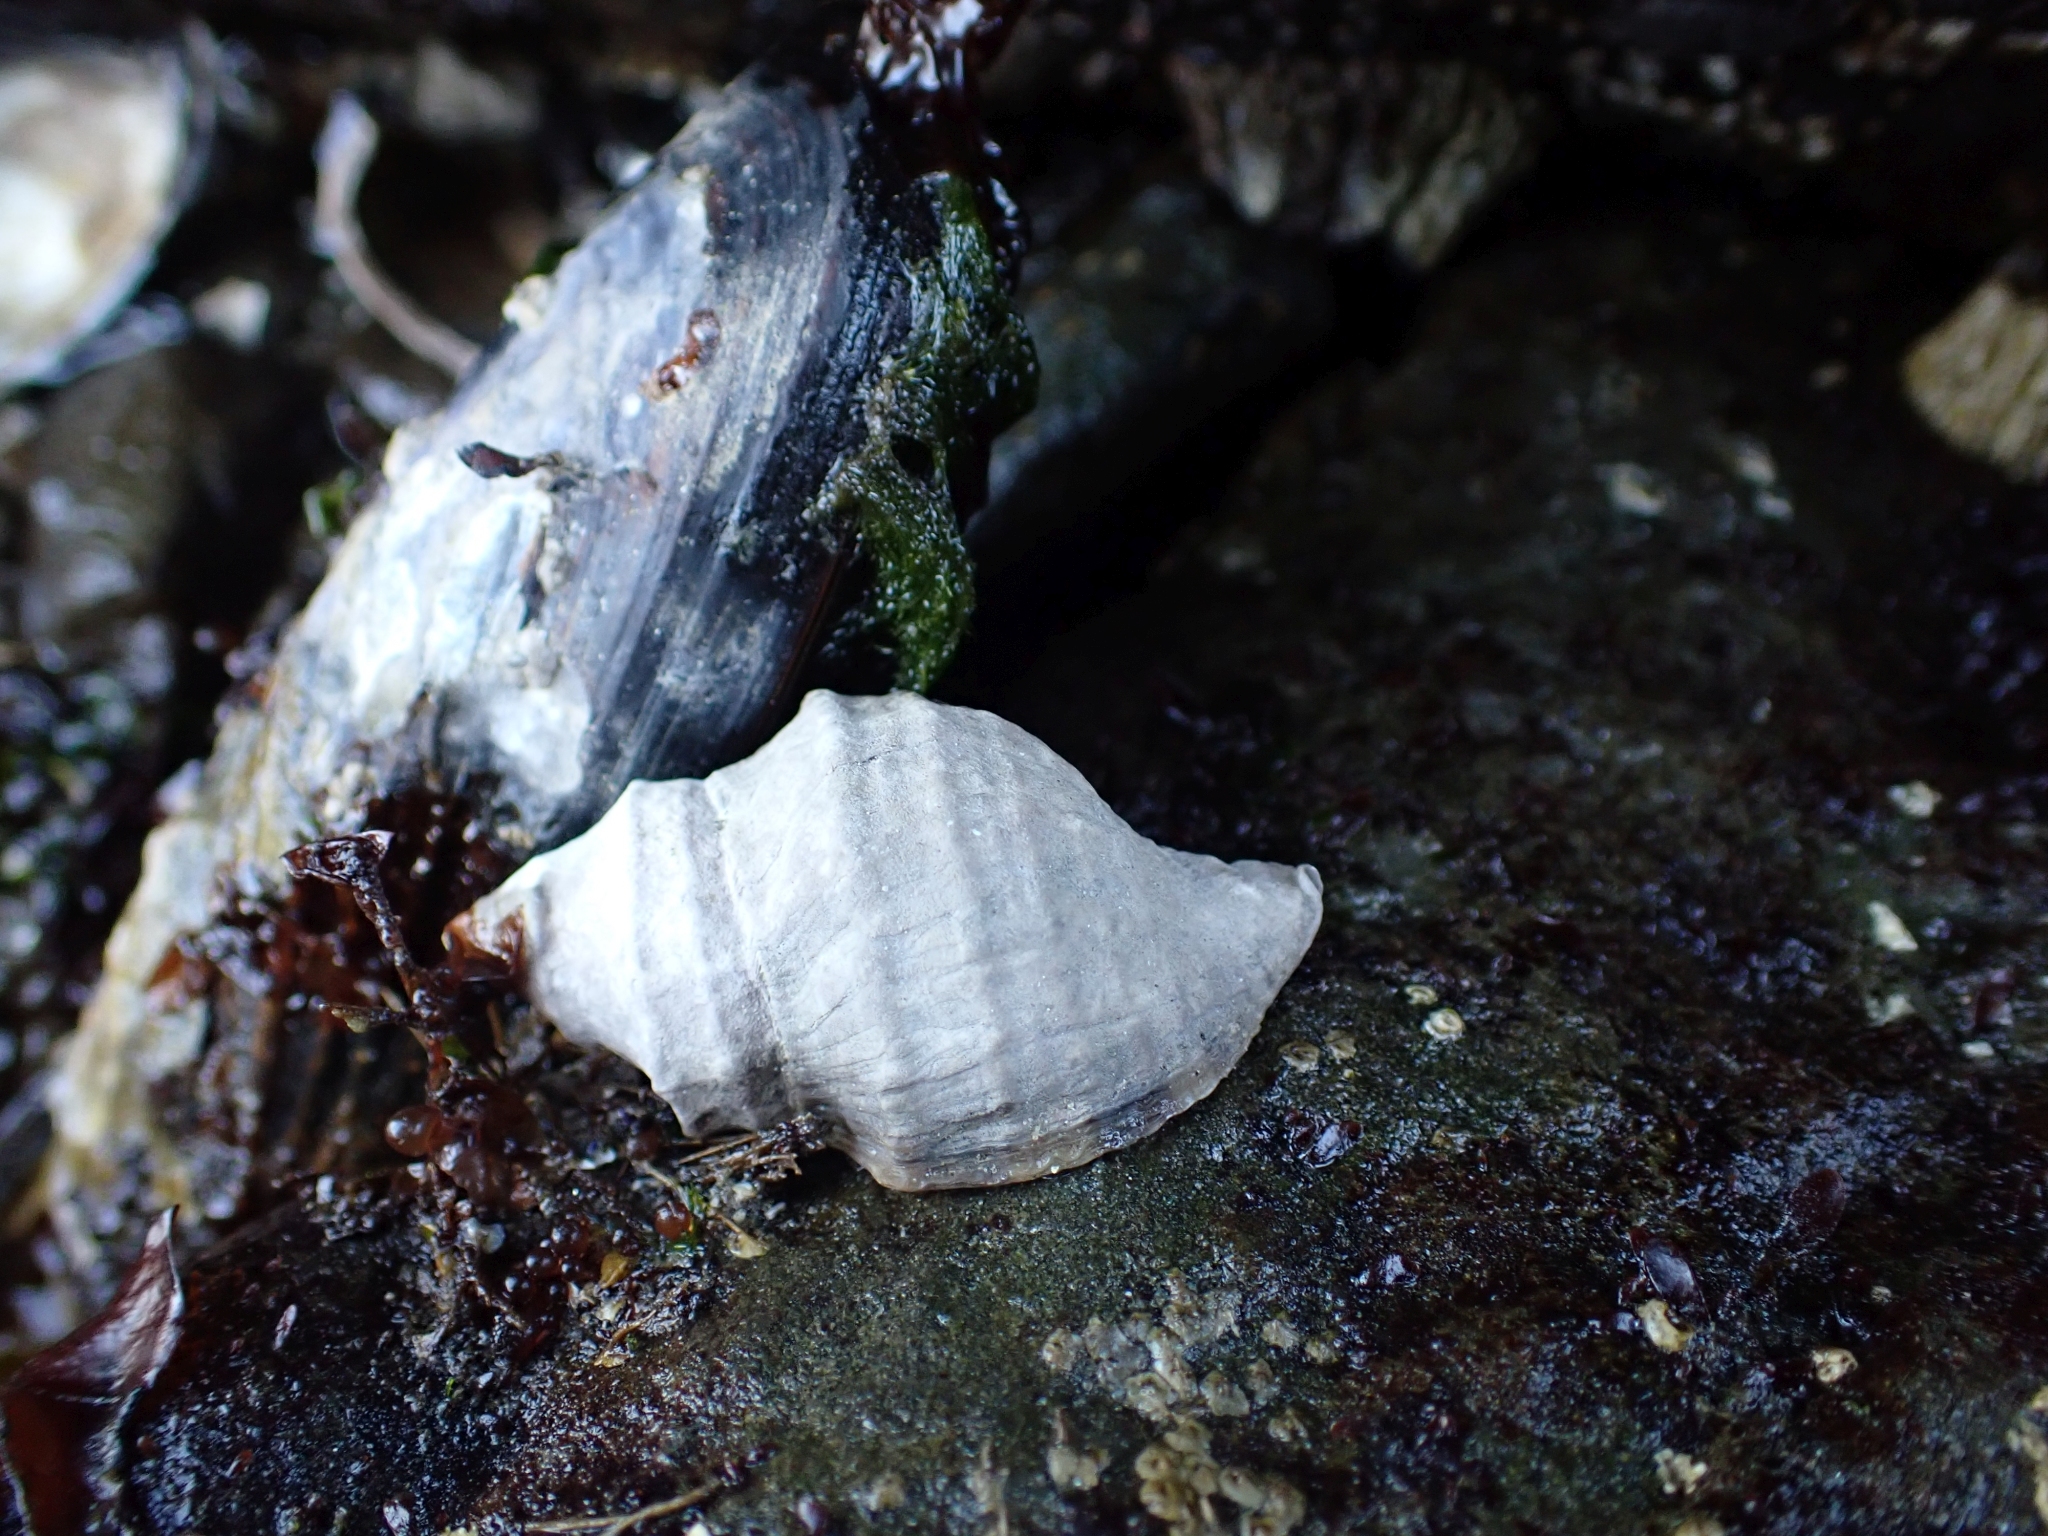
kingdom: Animalia
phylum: Mollusca
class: Gastropoda
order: Neogastropoda
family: Muricidae
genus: Nucella
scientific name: Nucella lamellosa
